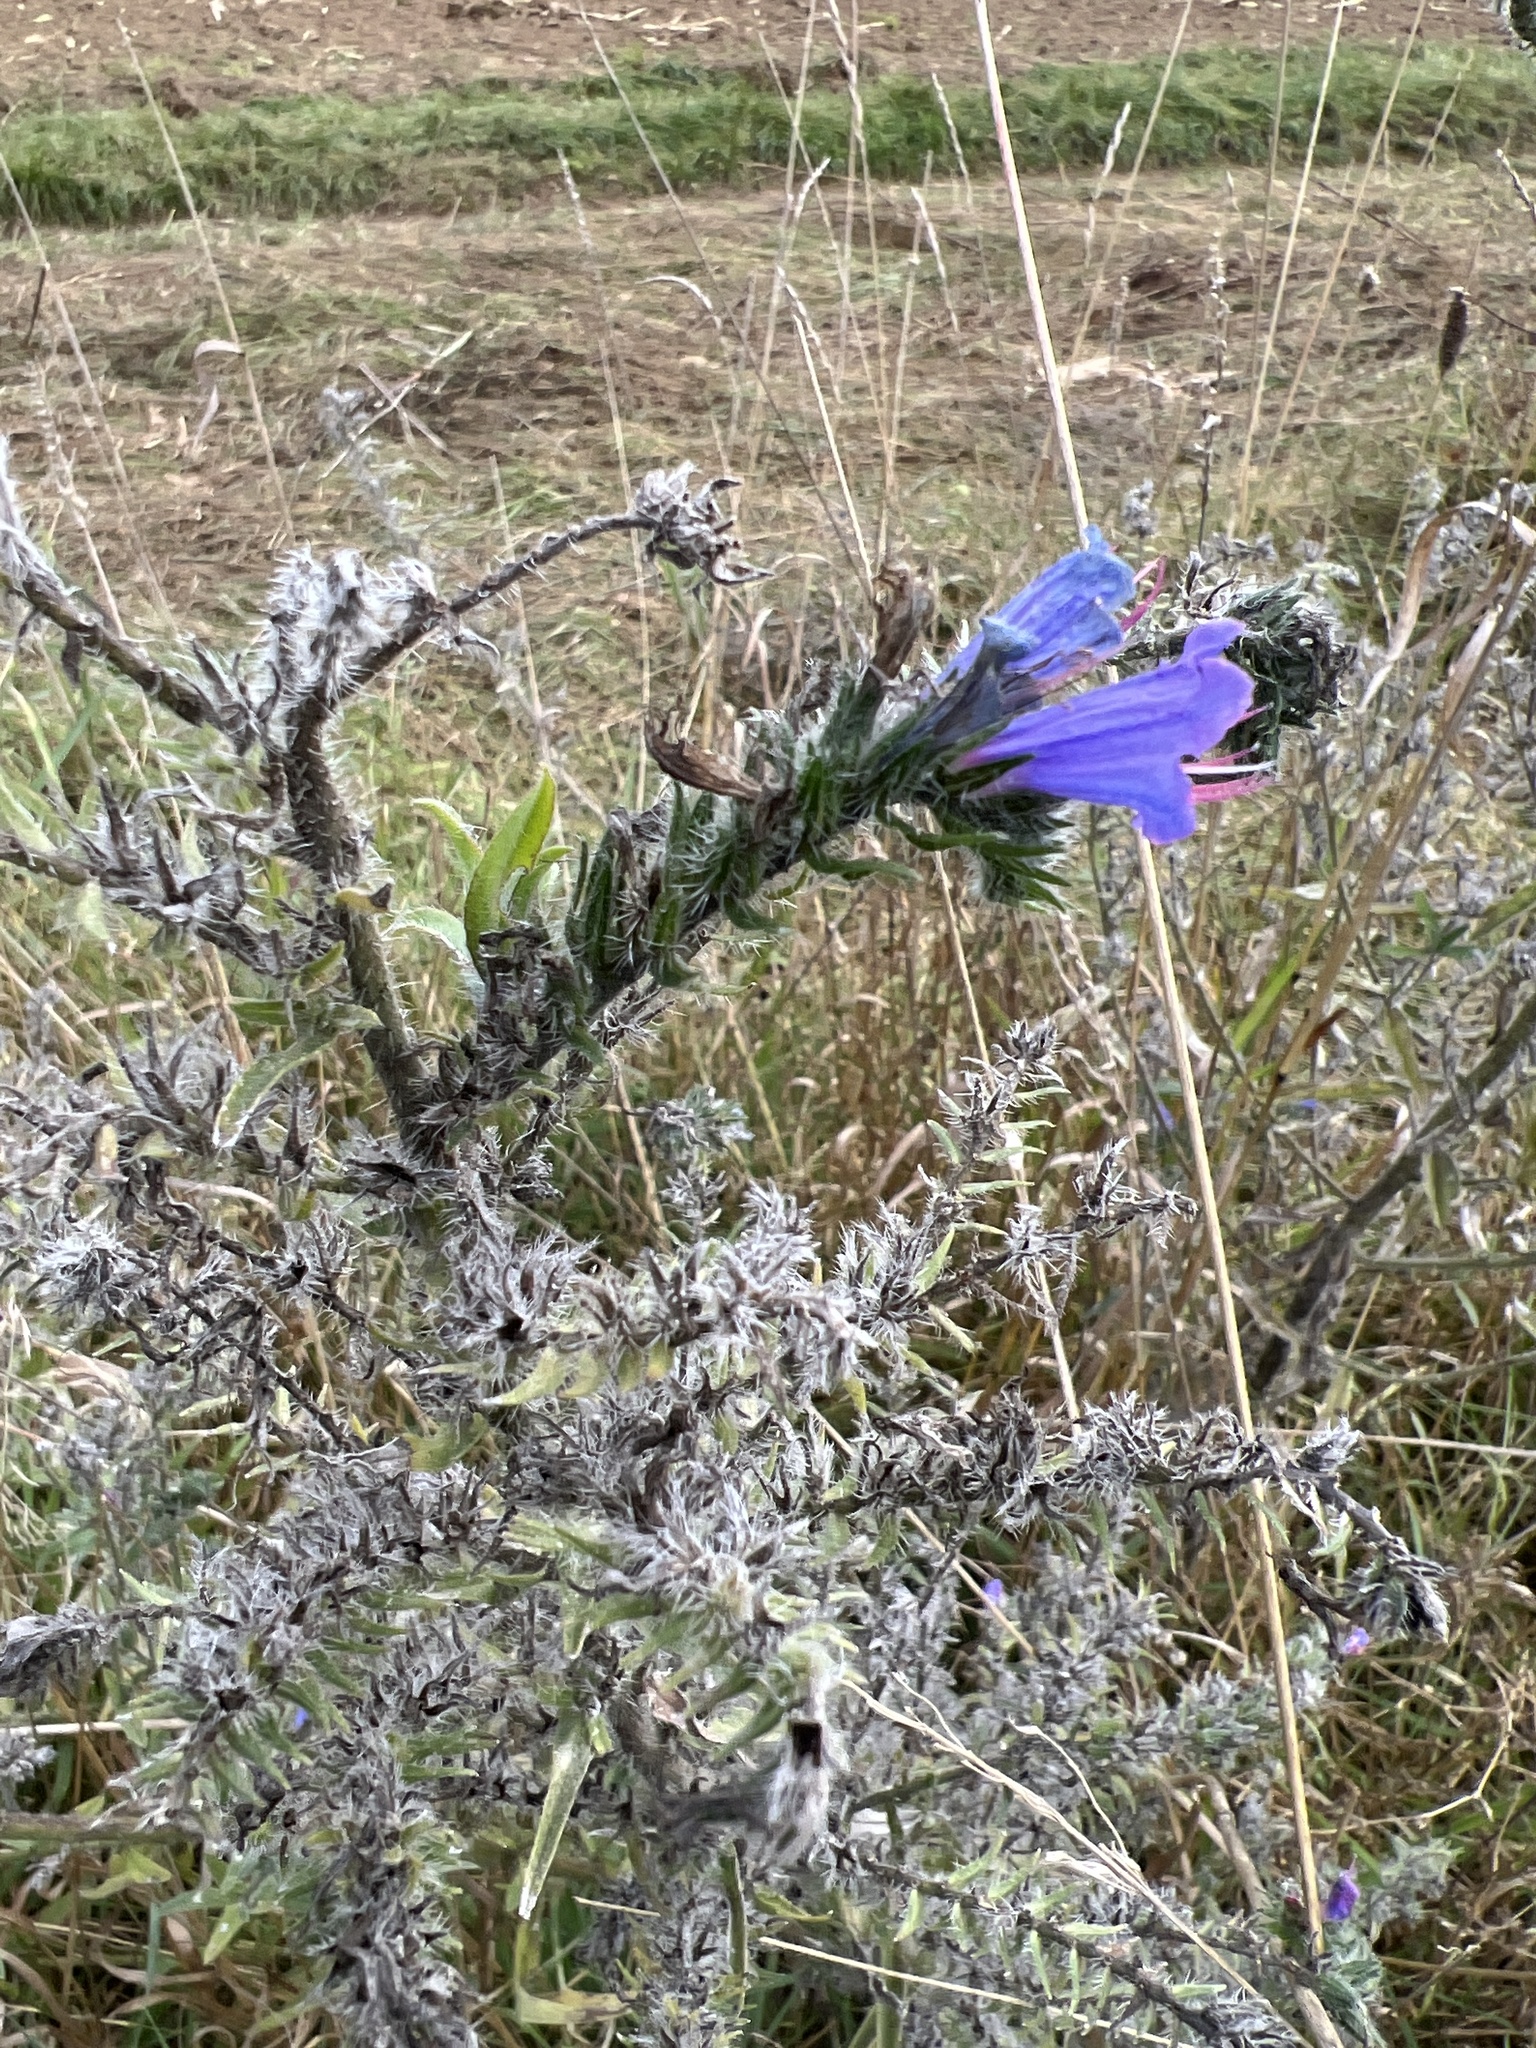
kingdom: Plantae
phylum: Tracheophyta
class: Magnoliopsida
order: Boraginales
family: Boraginaceae
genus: Echium
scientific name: Echium vulgare
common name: Common viper's bugloss
